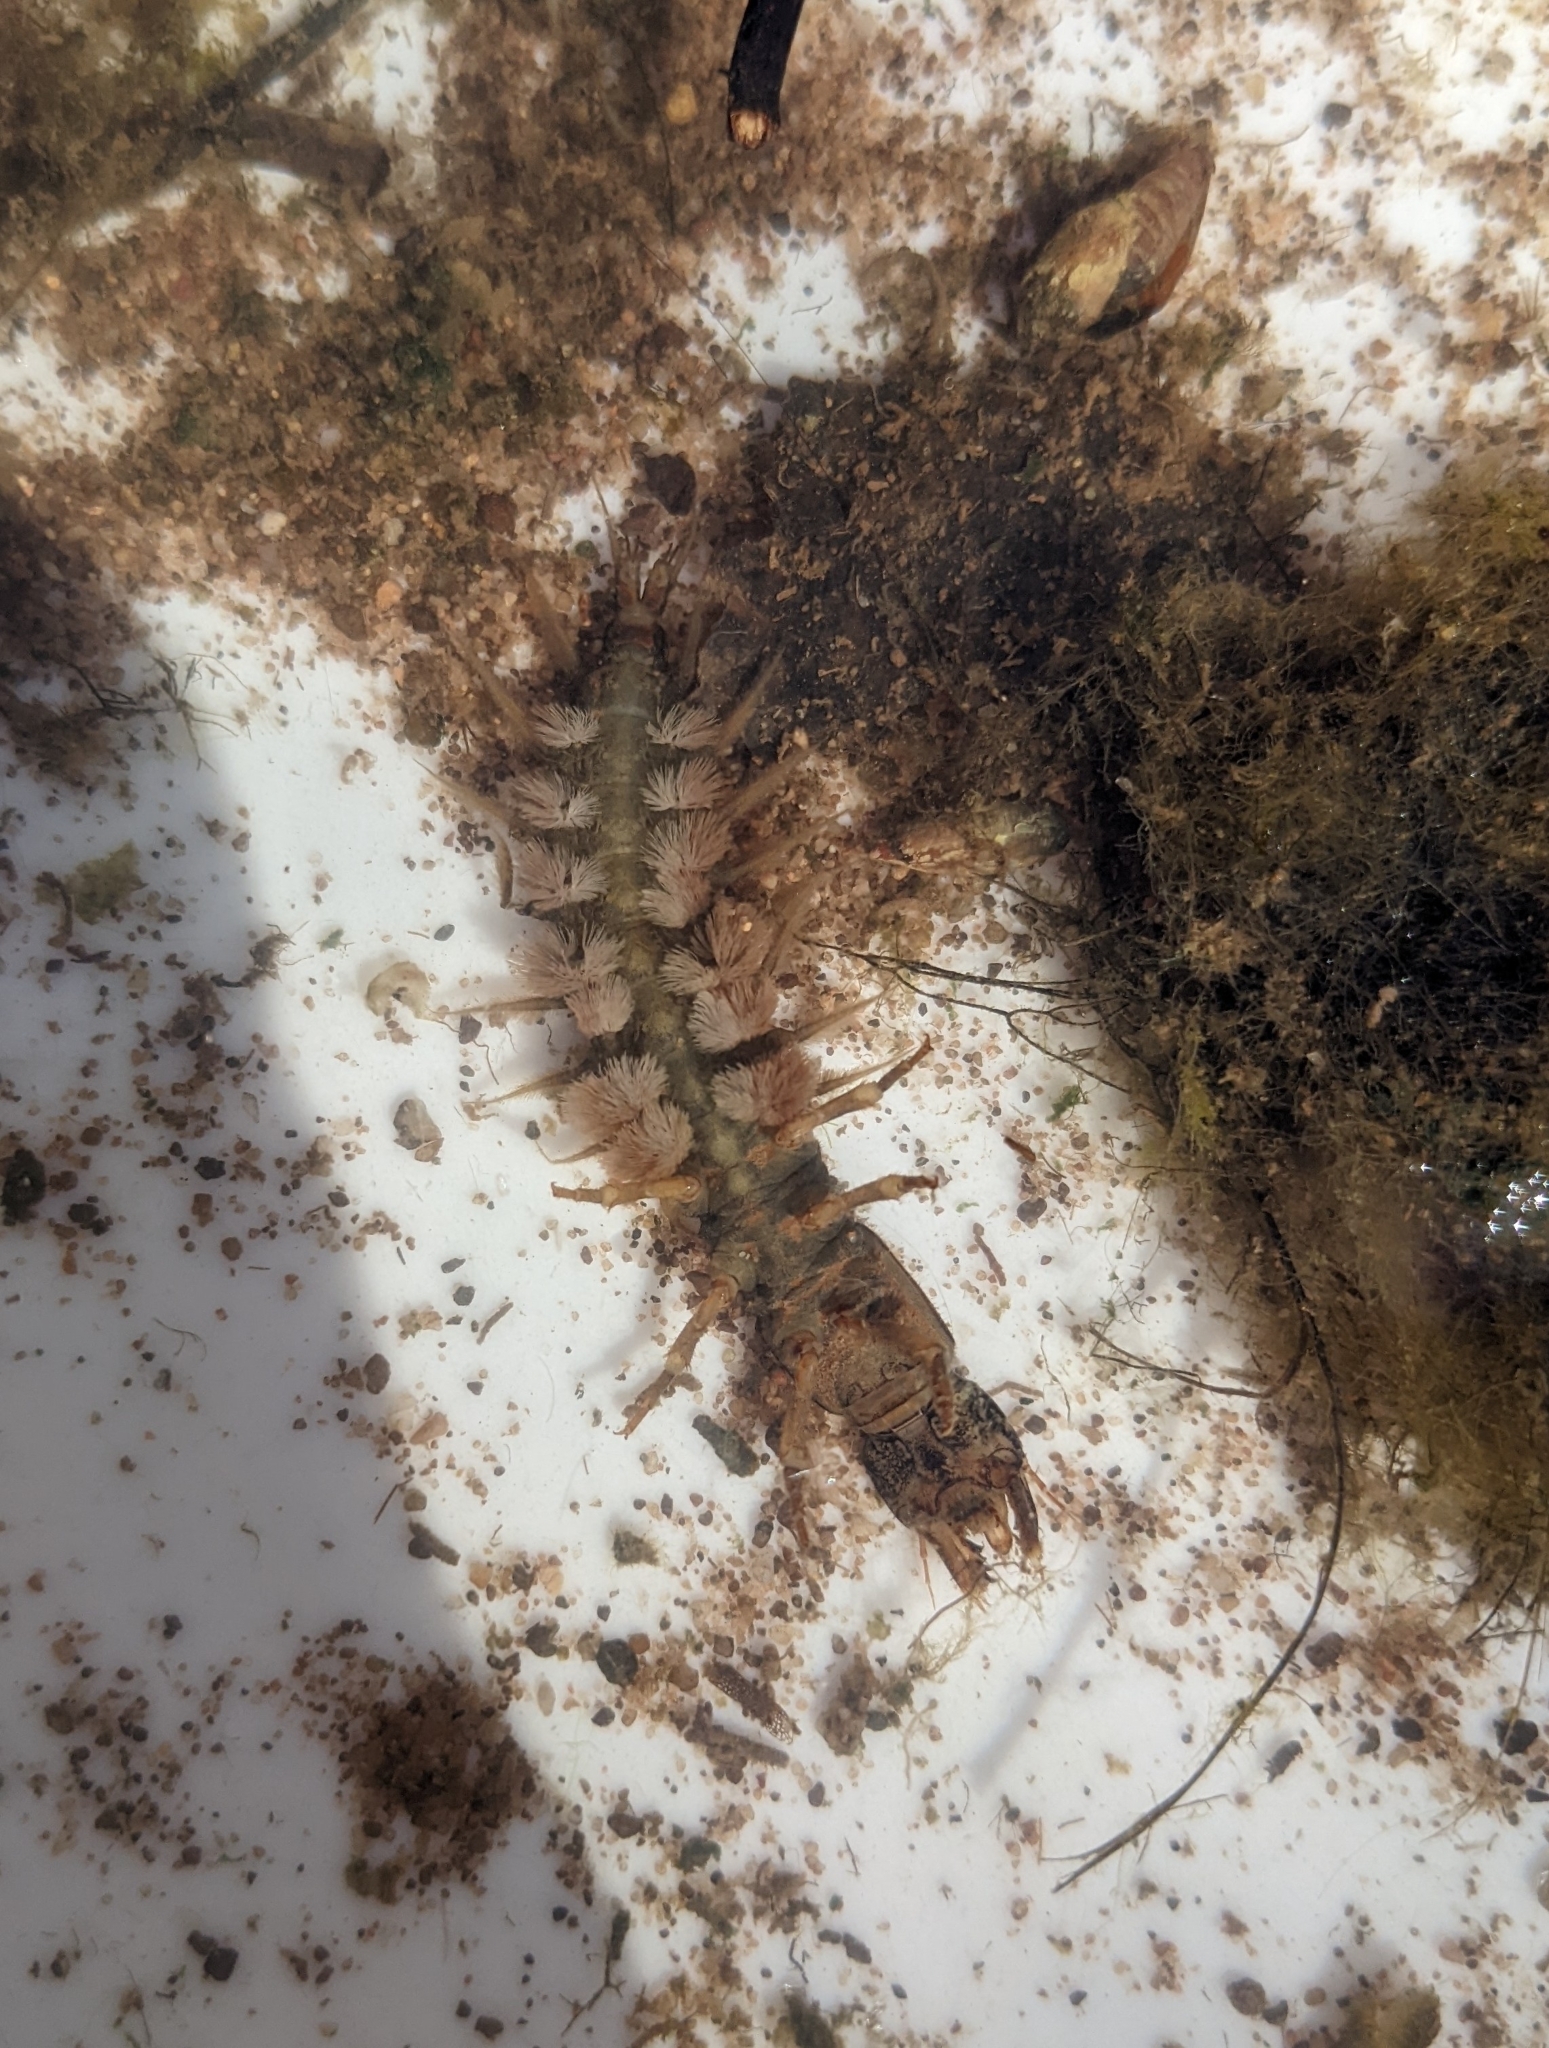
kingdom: Animalia
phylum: Arthropoda
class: Insecta
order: Megaloptera
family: Corydalidae
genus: Corydalus
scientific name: Corydalus texanus
